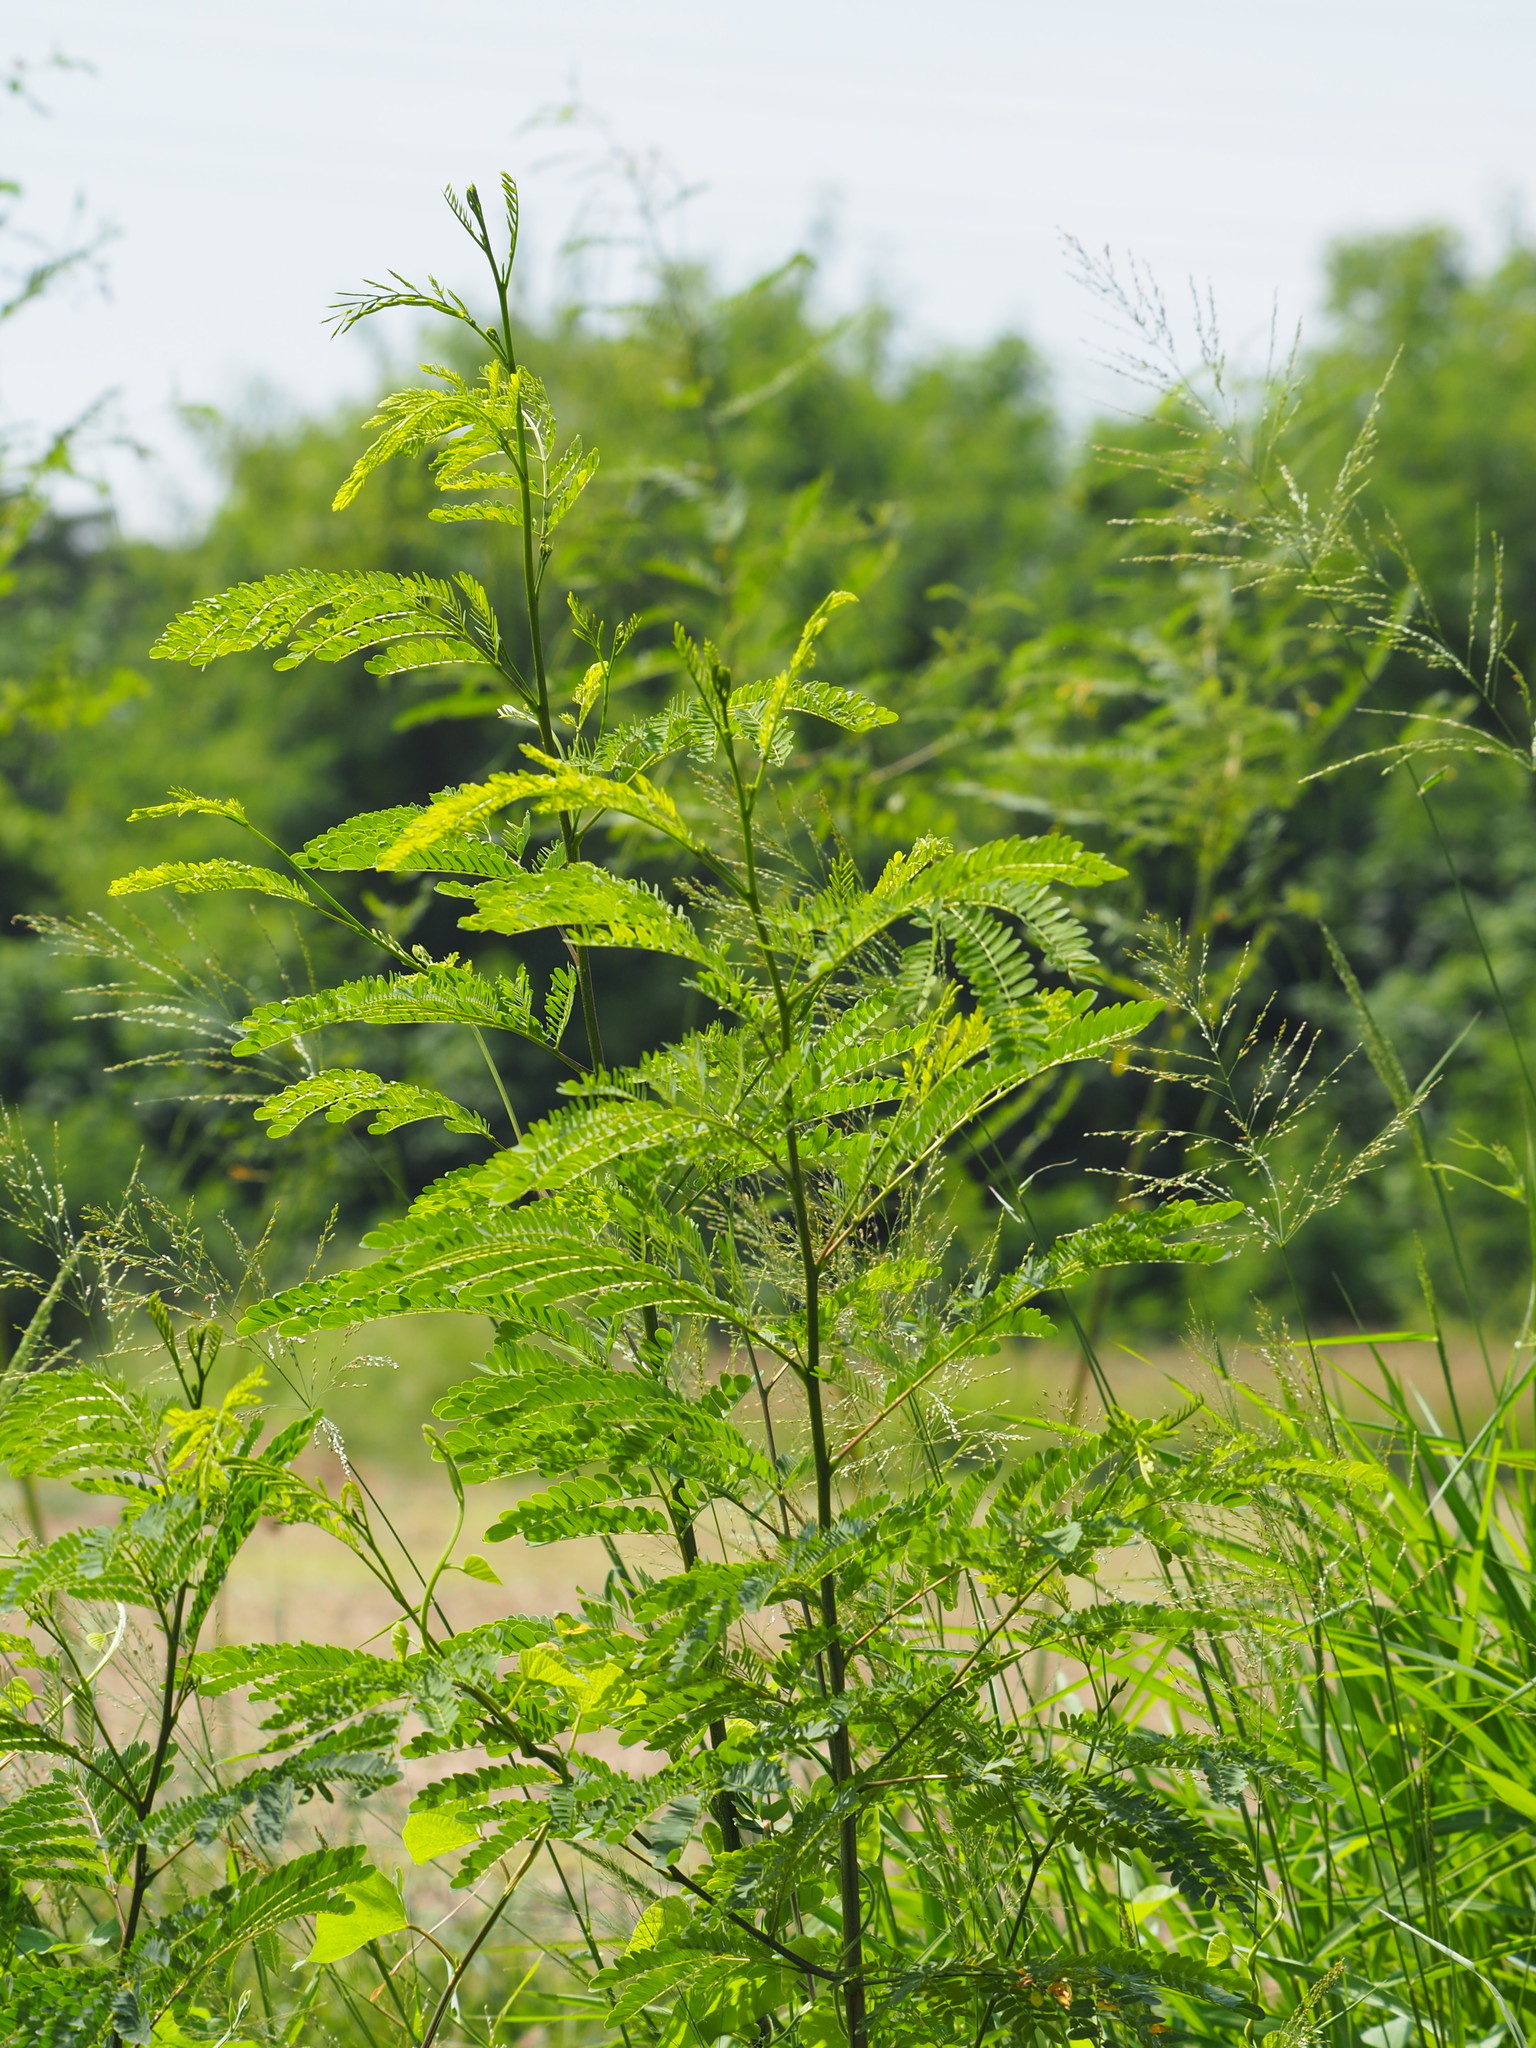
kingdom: Plantae
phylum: Tracheophyta
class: Magnoliopsida
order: Fabales
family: Fabaceae
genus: Leucaena
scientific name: Leucaena leucocephala
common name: White leadtree
